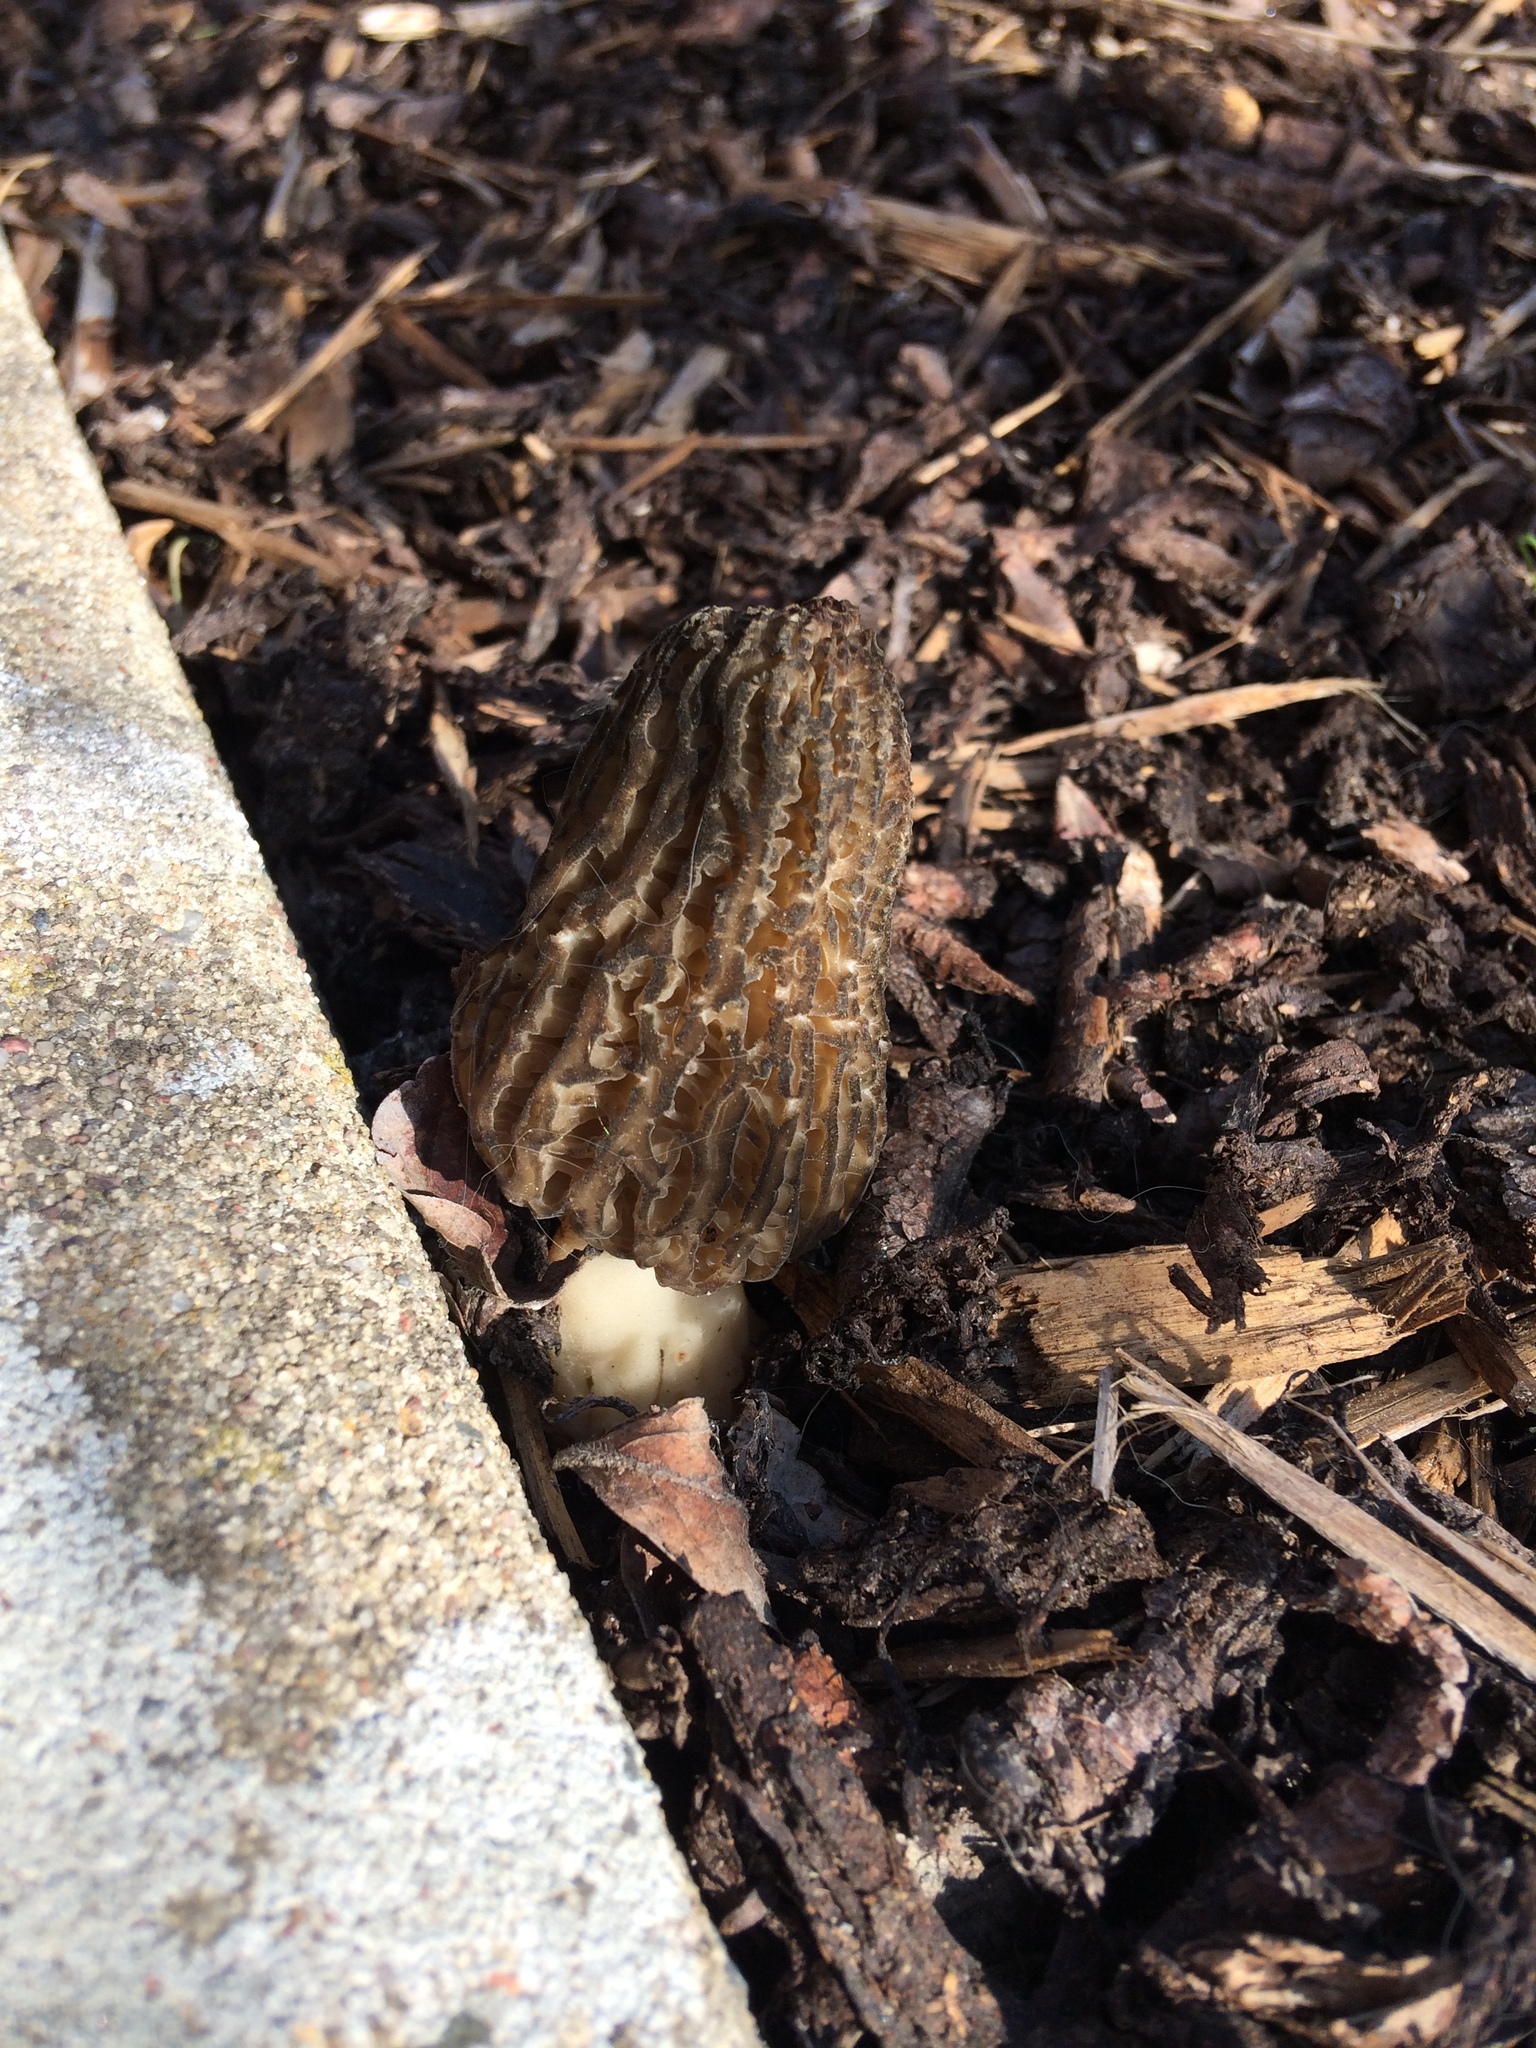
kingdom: Fungi
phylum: Ascomycota
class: Pezizomycetes
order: Pezizales
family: Morchellaceae
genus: Morchella
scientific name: Morchella importuna
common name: Landscaping black morel
